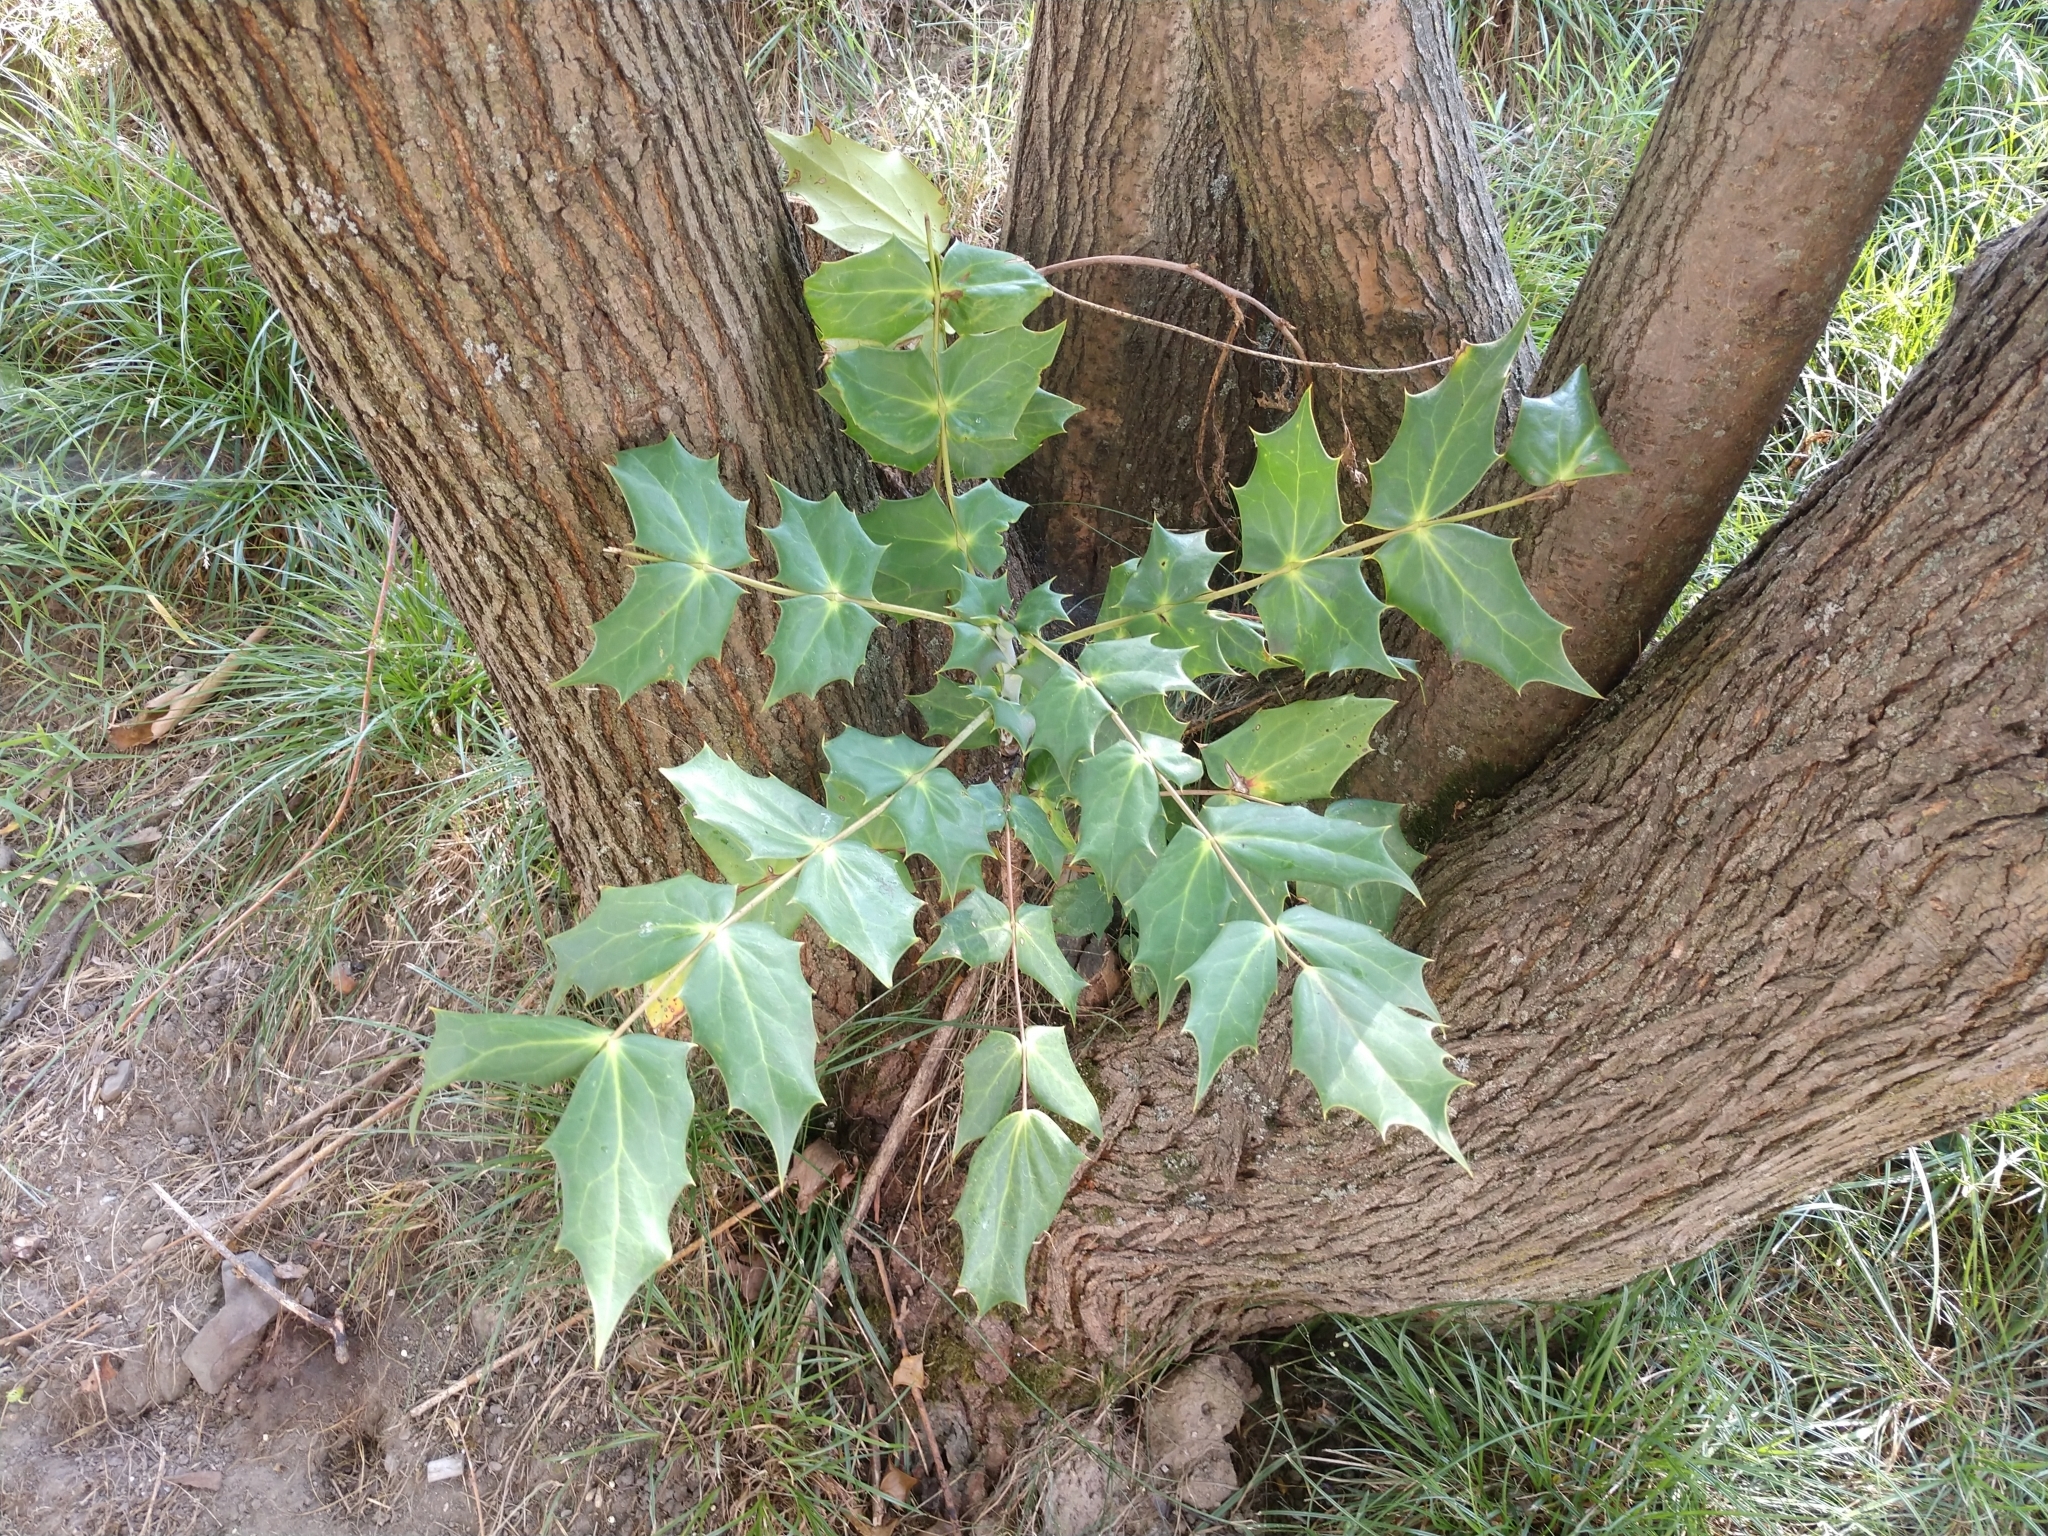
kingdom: Plantae
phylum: Tracheophyta
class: Magnoliopsida
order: Ranunculales
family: Berberidaceae
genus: Mahonia
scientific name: Mahonia bealei
